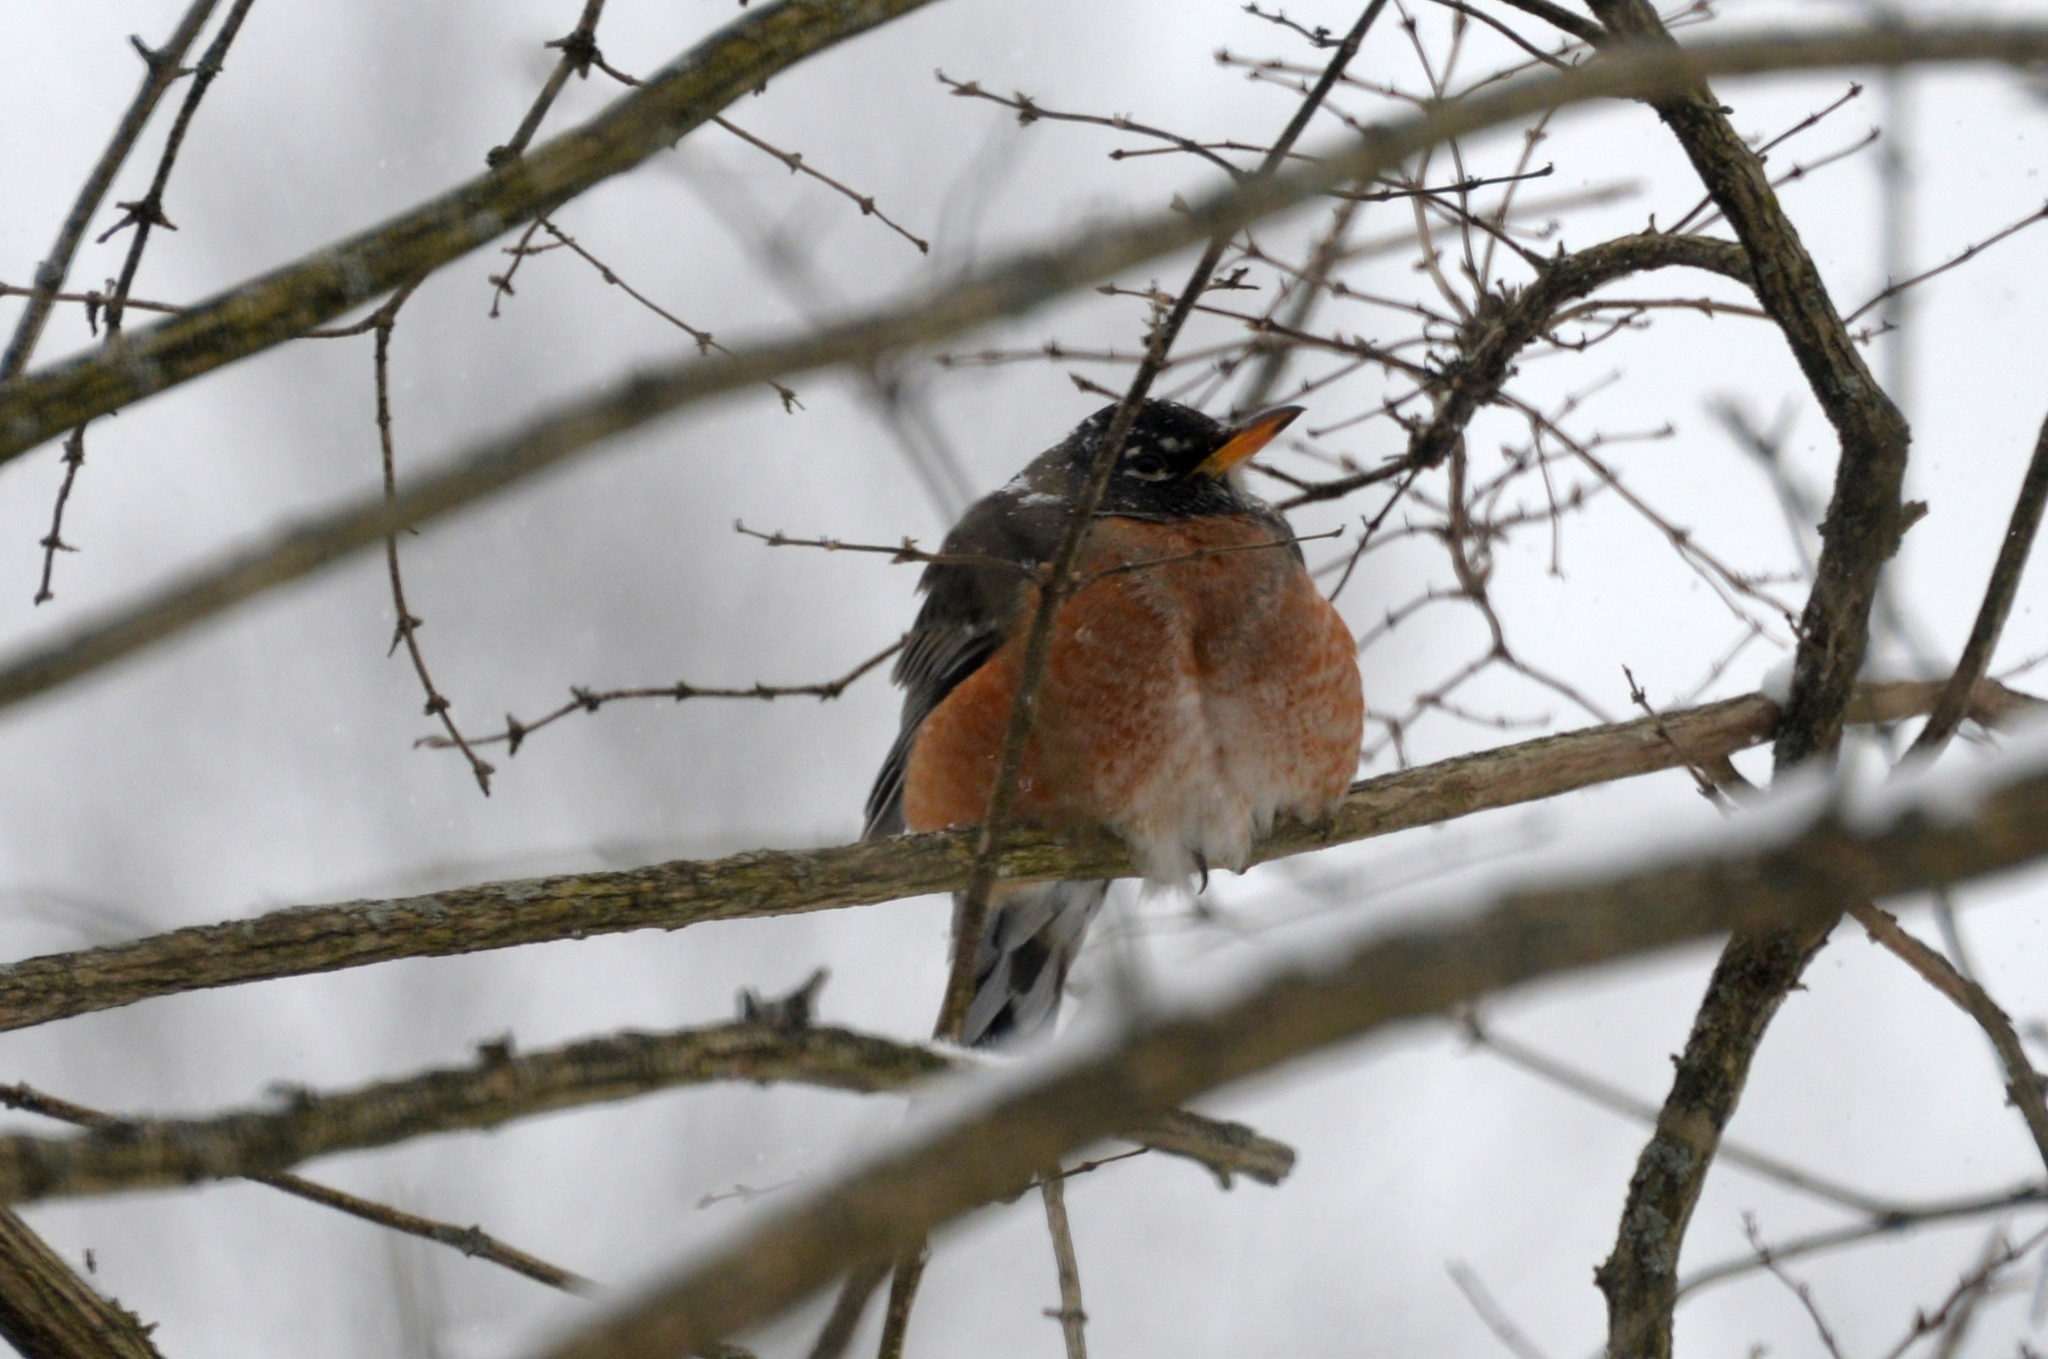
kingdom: Animalia
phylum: Chordata
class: Aves
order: Passeriformes
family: Turdidae
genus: Turdus
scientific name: Turdus migratorius
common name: American robin
